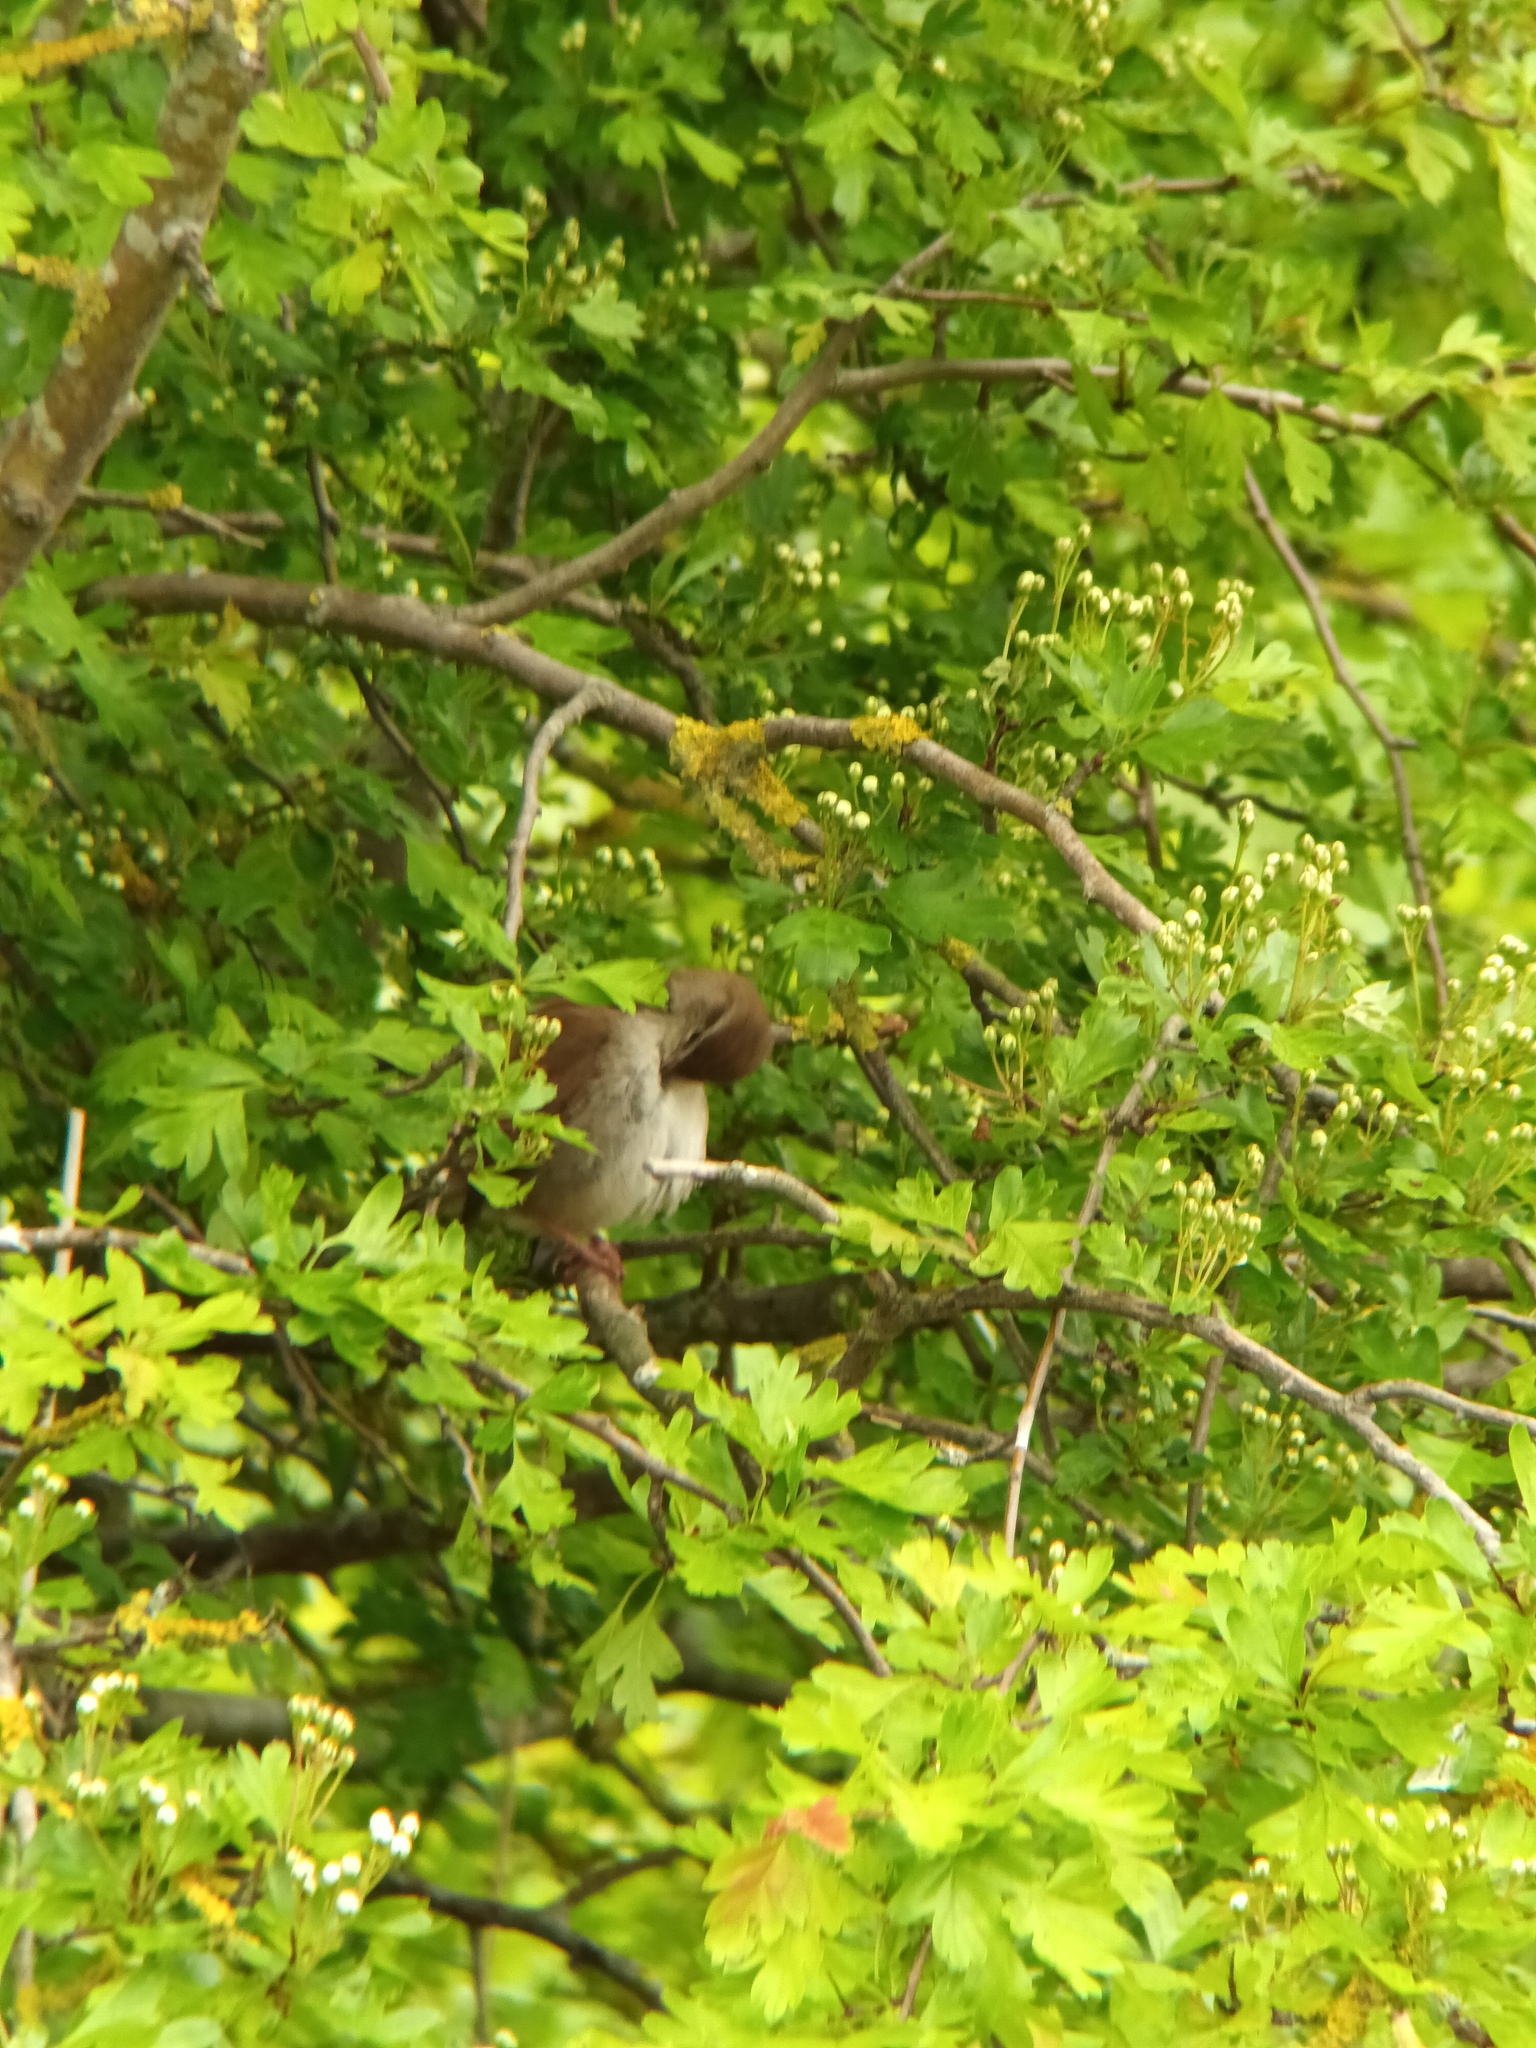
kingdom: Animalia
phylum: Chordata
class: Aves
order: Passeriformes
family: Cettiidae
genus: Cettia
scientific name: Cettia cetti
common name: Cetti's warbler
